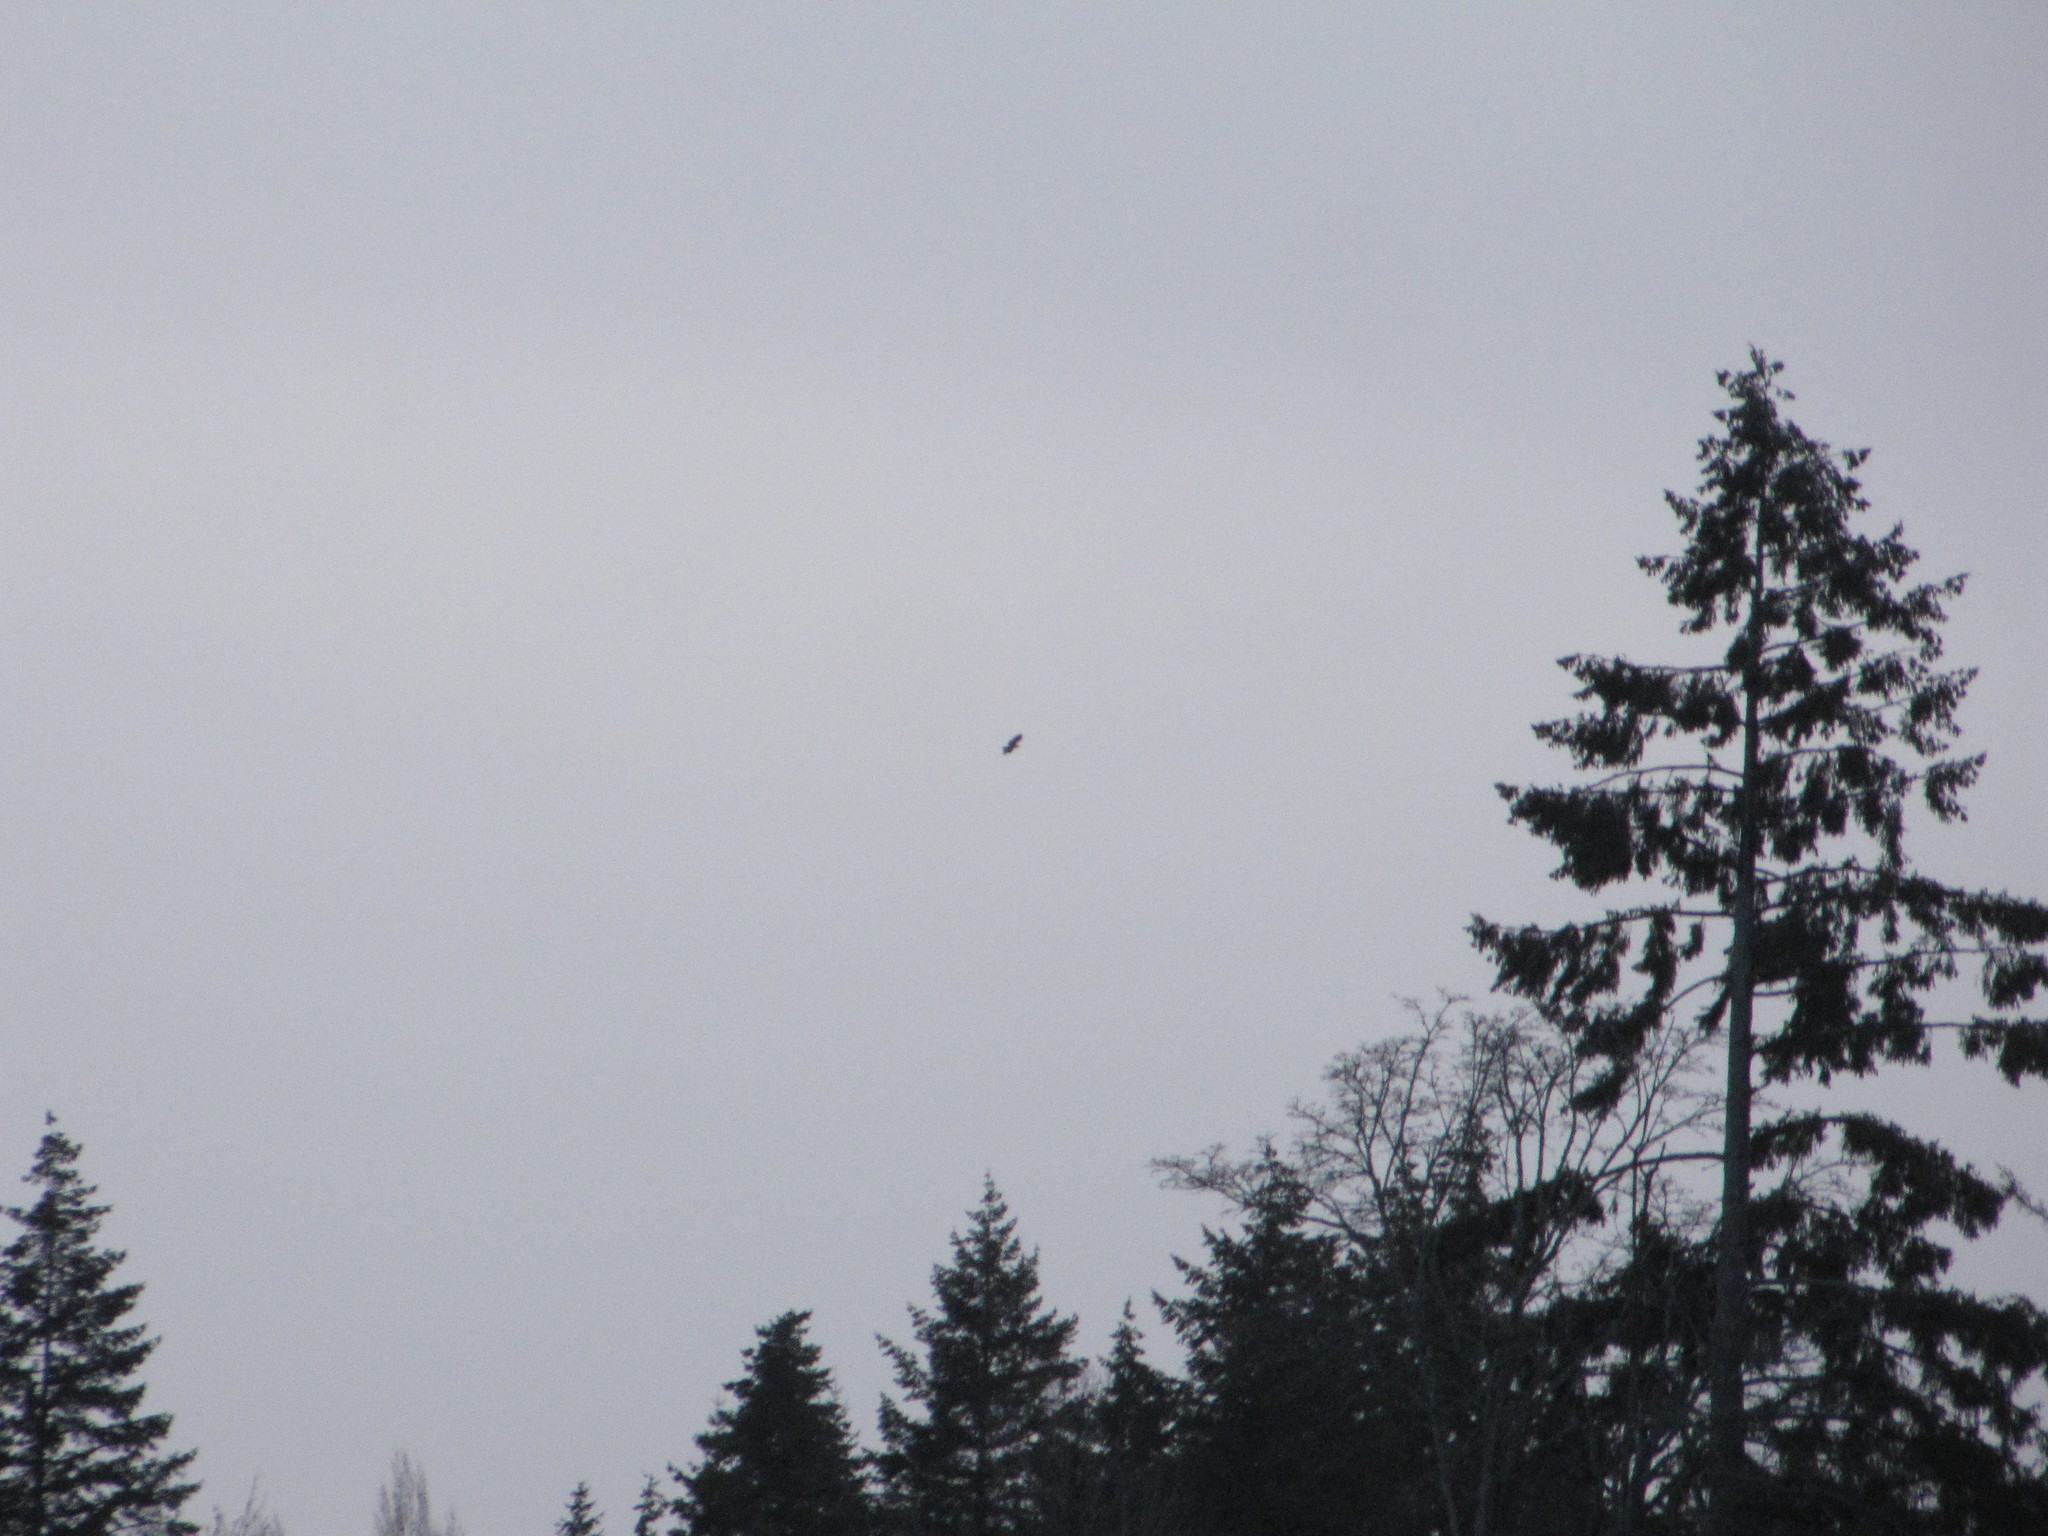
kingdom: Animalia
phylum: Chordata
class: Aves
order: Accipitriformes
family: Accipitridae
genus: Haliaeetus
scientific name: Haliaeetus leucocephalus
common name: Bald eagle
